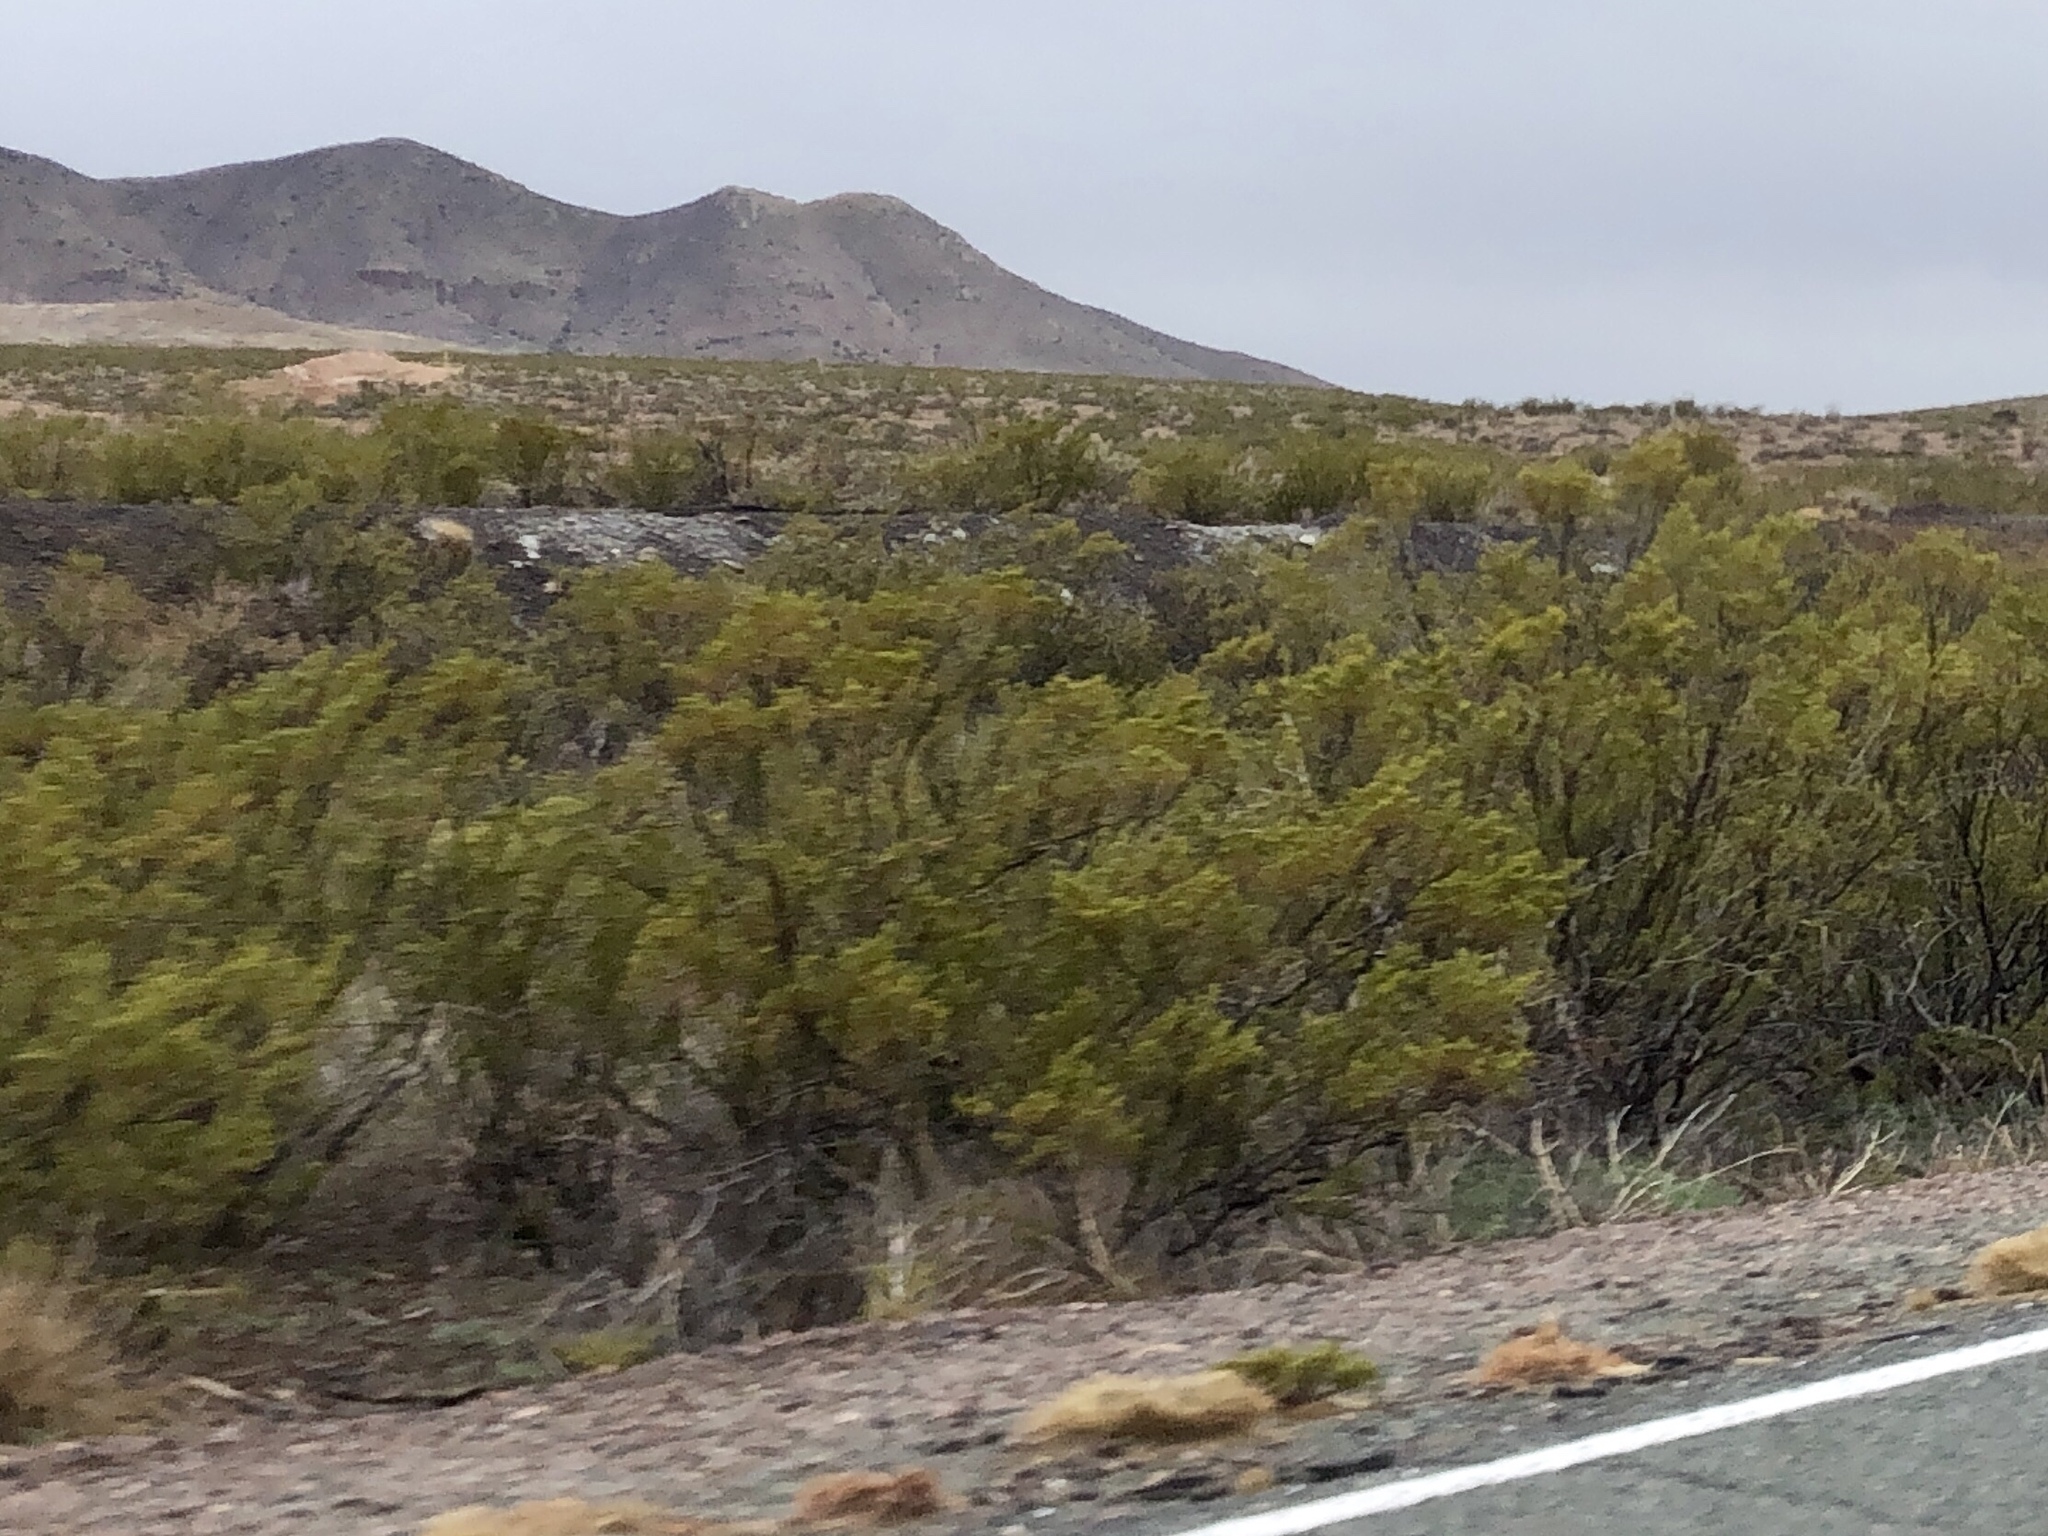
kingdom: Plantae
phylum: Tracheophyta
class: Magnoliopsida
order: Zygophyllales
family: Zygophyllaceae
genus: Larrea
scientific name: Larrea tridentata
